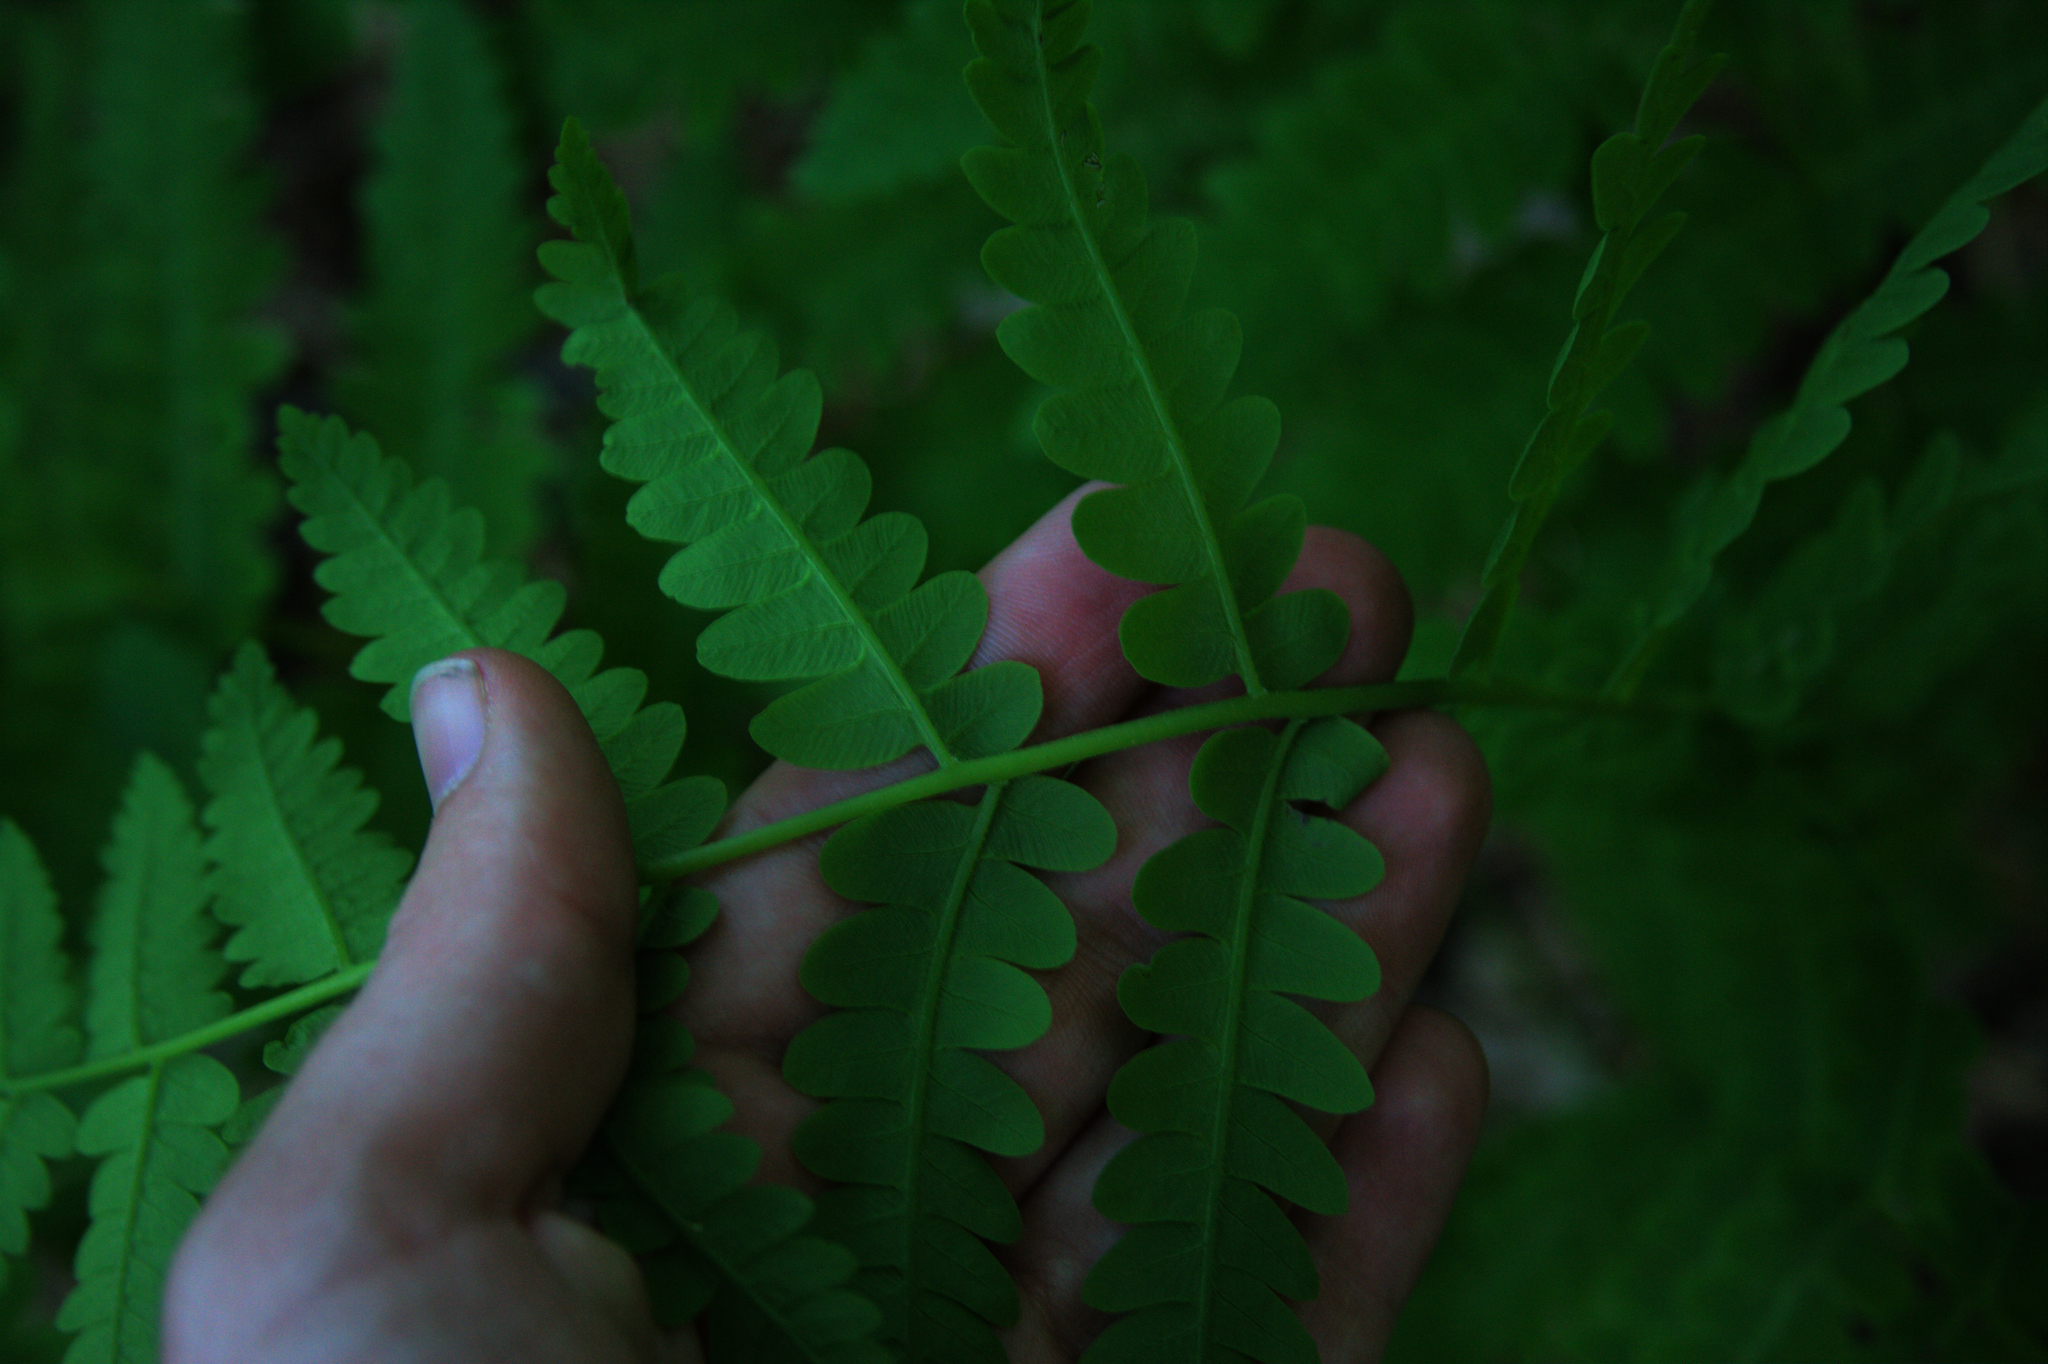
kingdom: Plantae
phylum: Tracheophyta
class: Polypodiopsida
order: Osmundales
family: Osmundaceae
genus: Claytosmunda
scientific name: Claytosmunda claytoniana
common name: Clayton's fern
